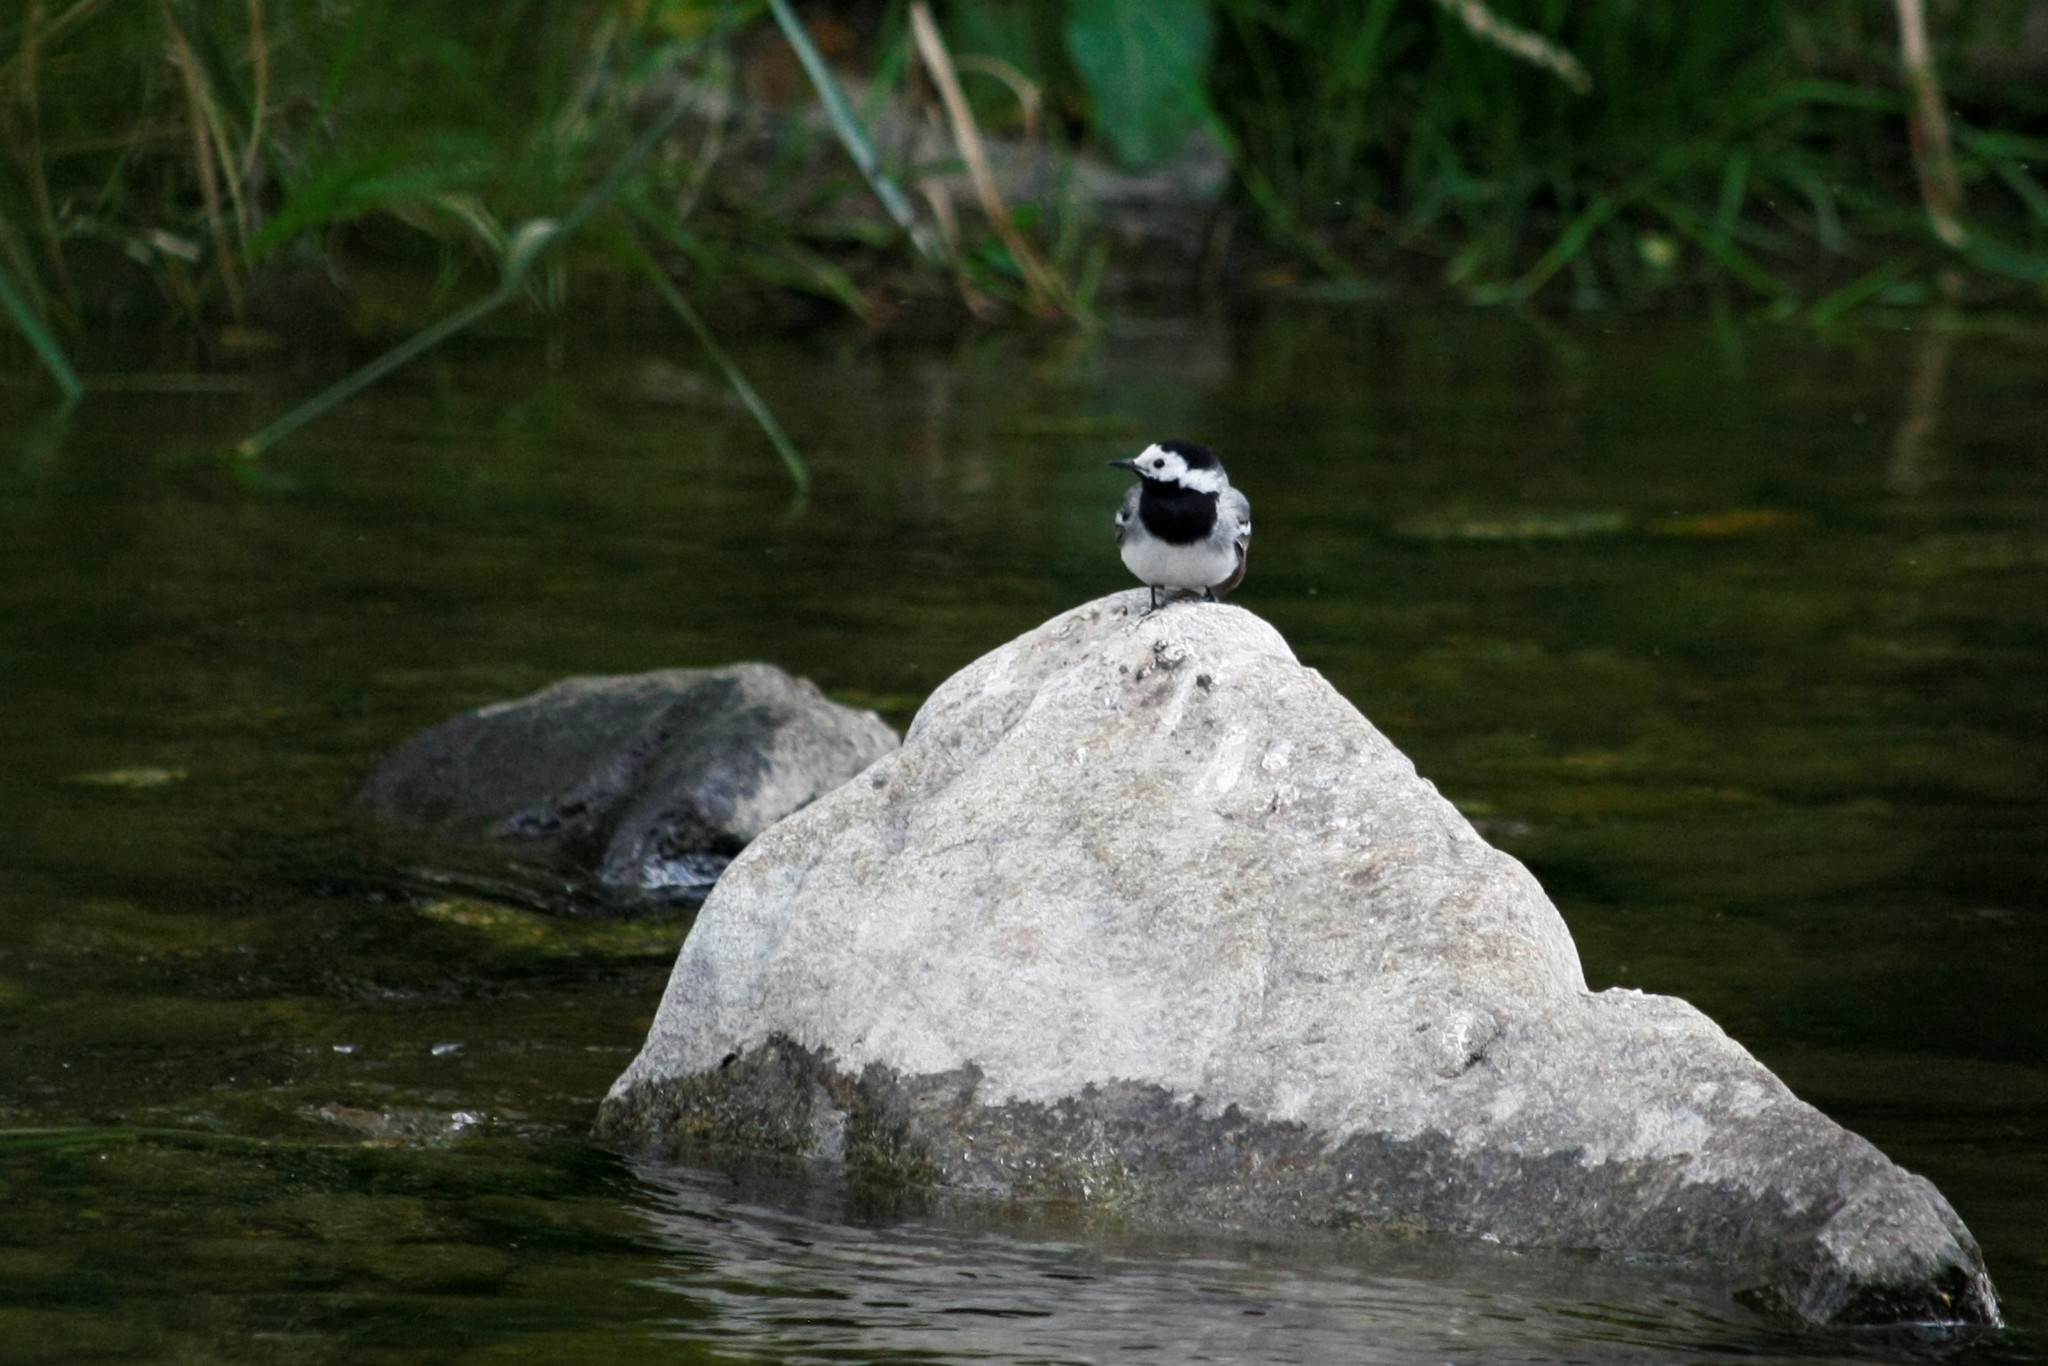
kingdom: Animalia
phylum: Chordata
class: Aves
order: Passeriformes
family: Motacillidae
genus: Motacilla
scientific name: Motacilla alba
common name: White wagtail
